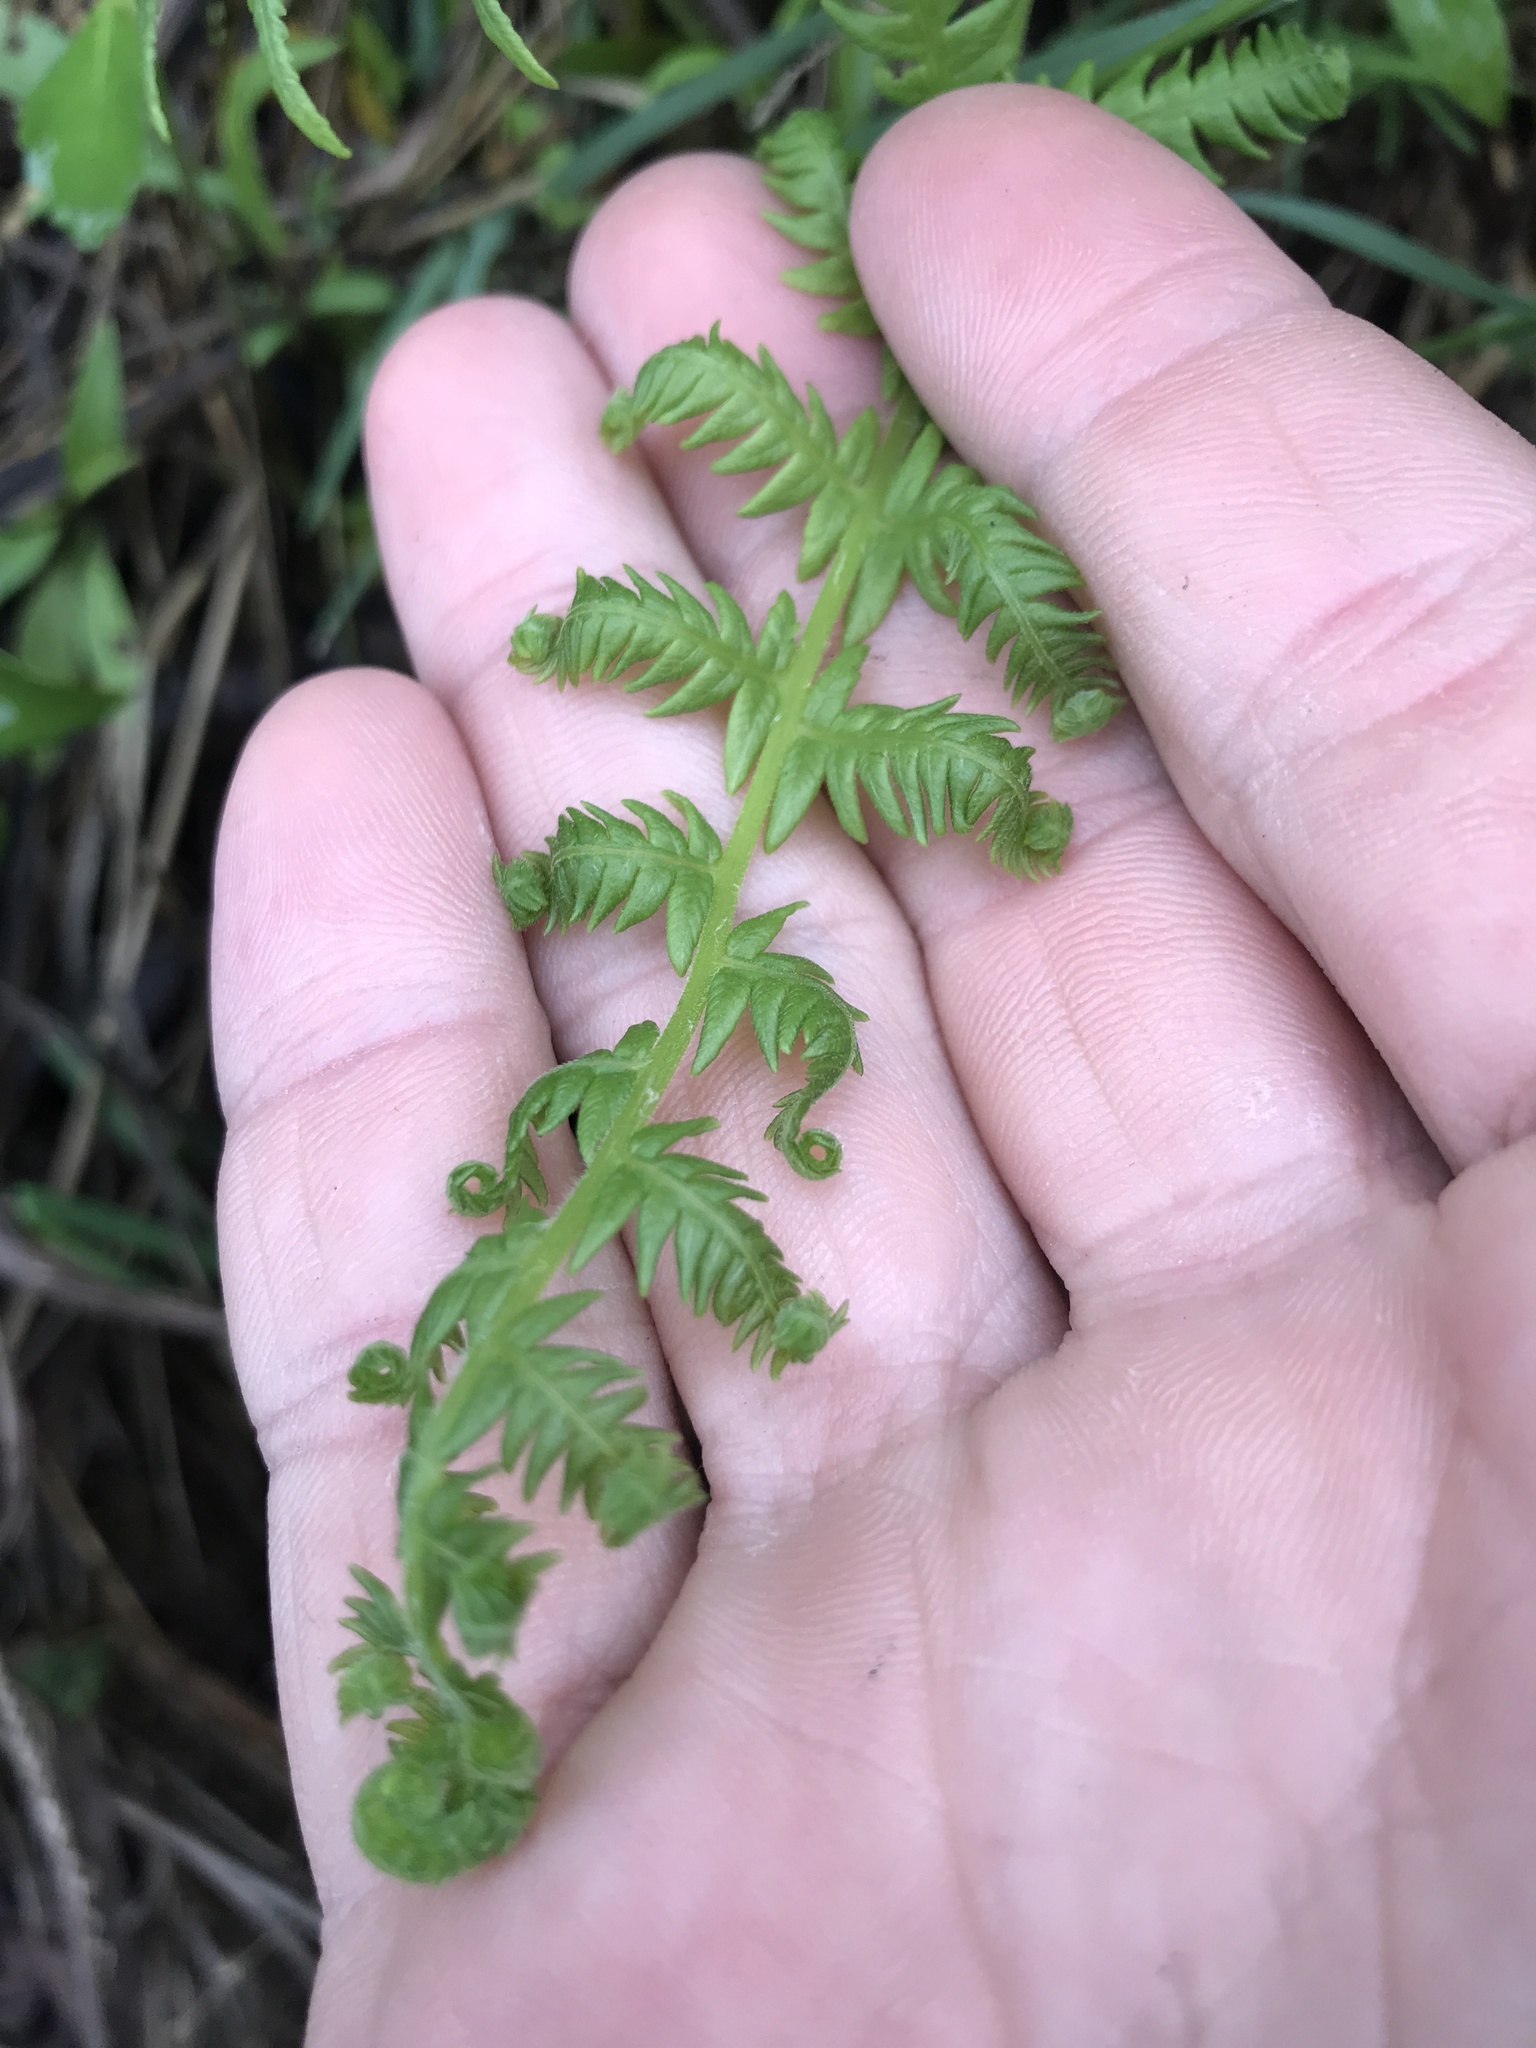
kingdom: Plantae
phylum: Tracheophyta
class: Polypodiopsida
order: Polypodiales
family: Thelypteridaceae
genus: Pelazoneuron
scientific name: Pelazoneuron ovatum
